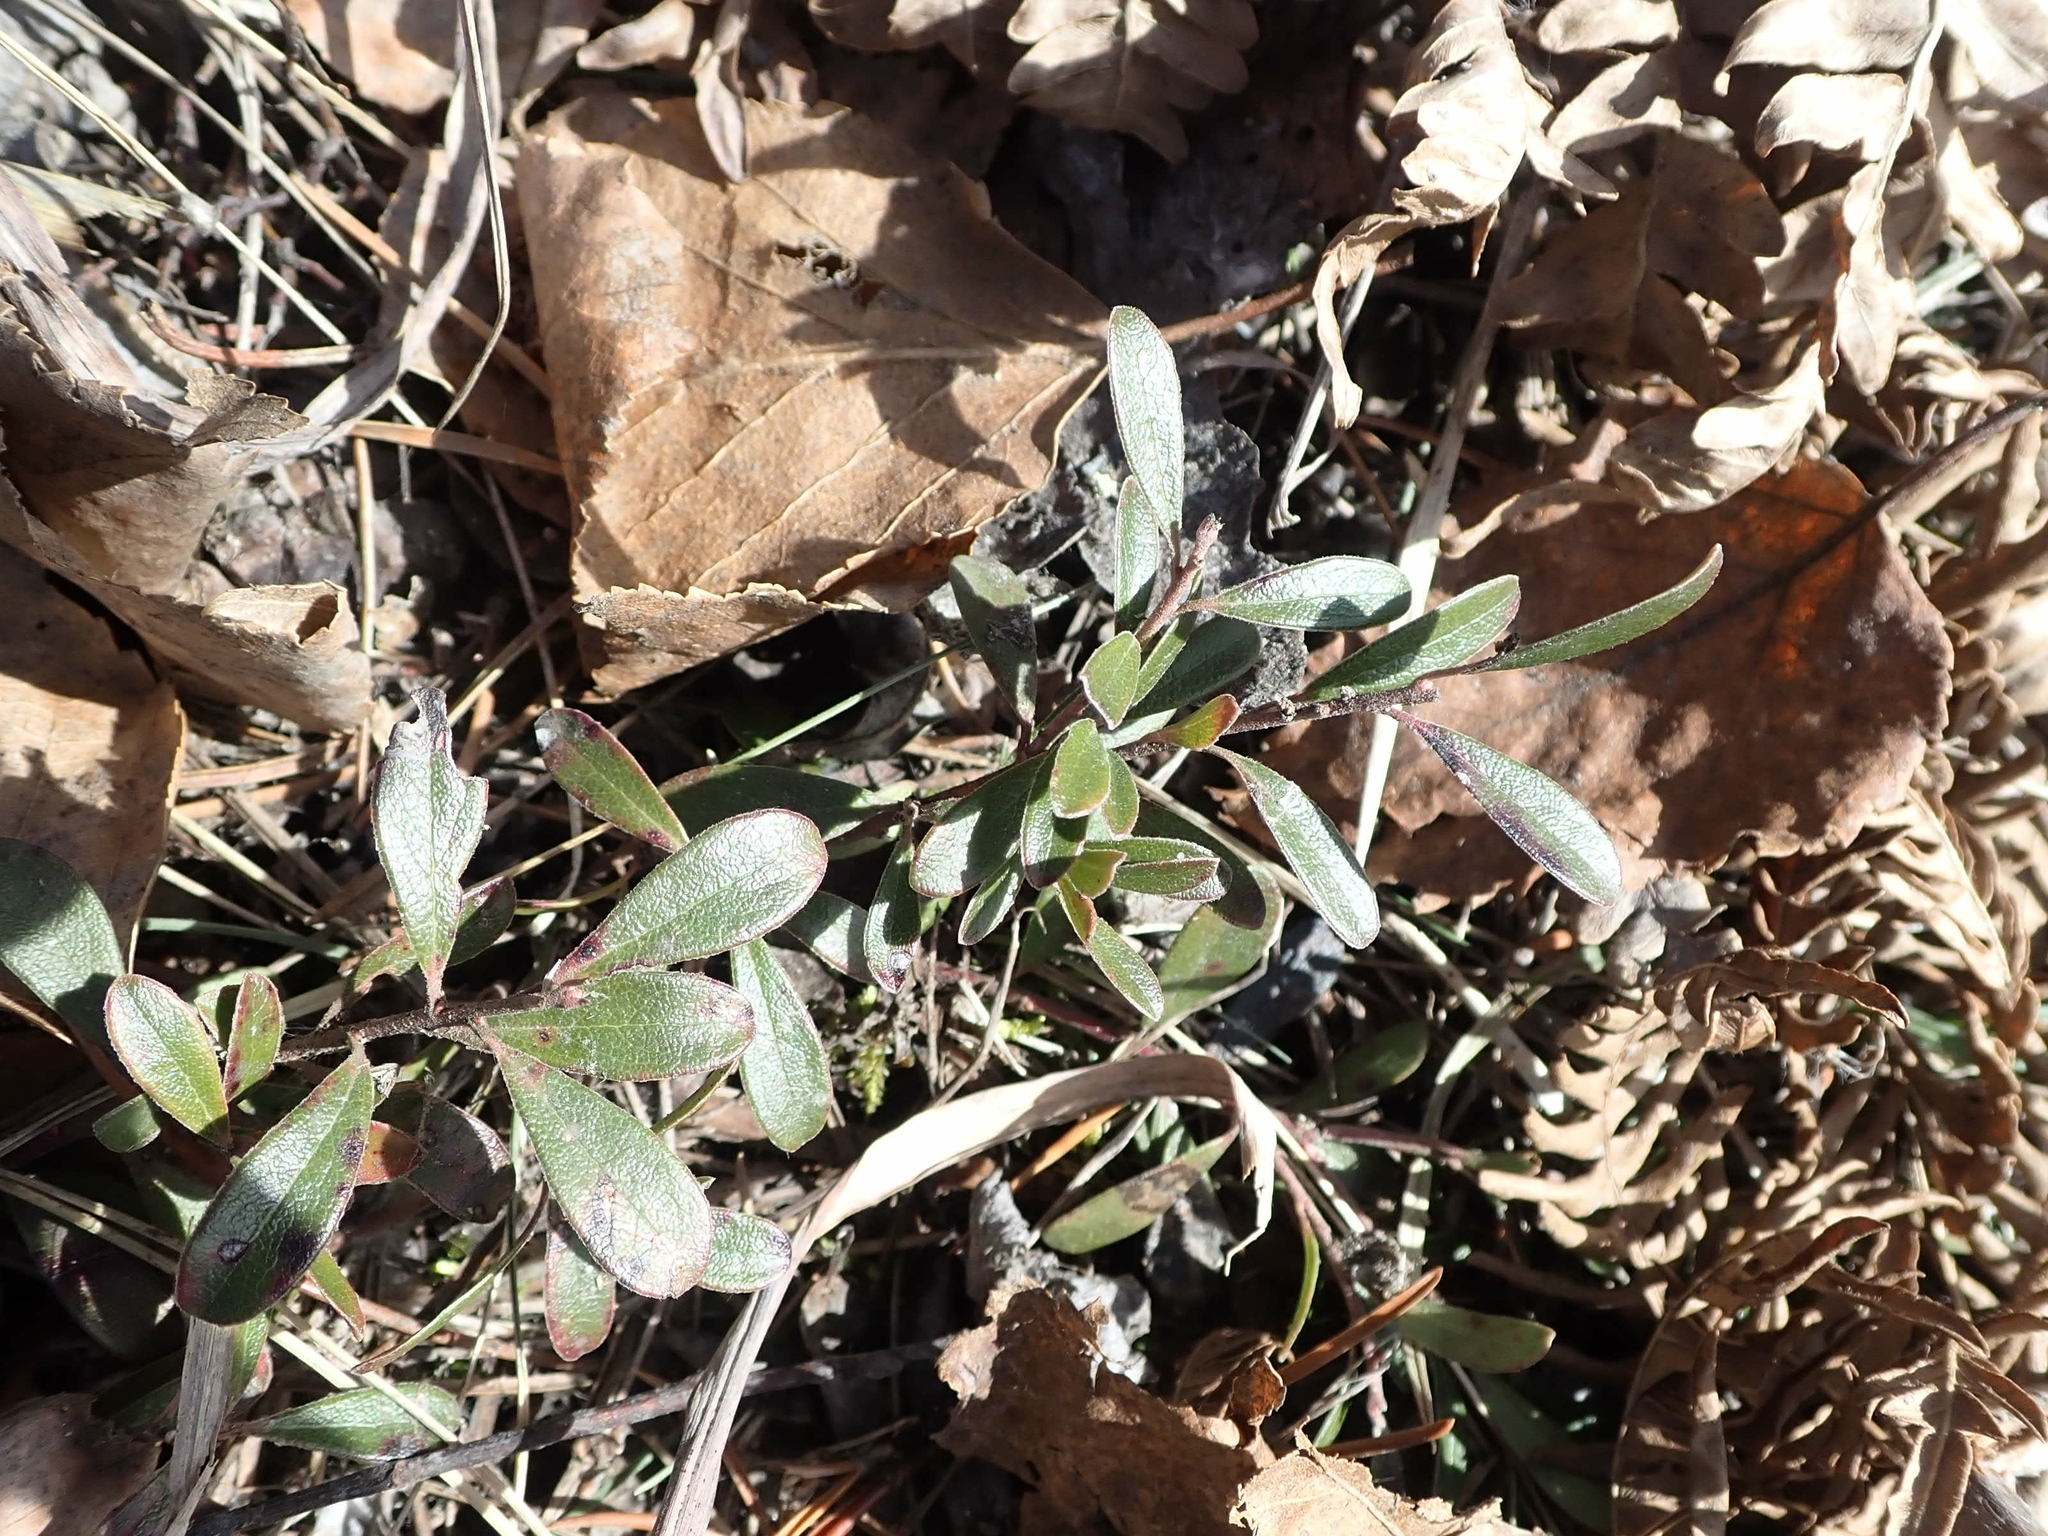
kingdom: Plantae
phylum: Tracheophyta
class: Magnoliopsida
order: Ericales
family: Ericaceae
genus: Arctostaphylos
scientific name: Arctostaphylos uva-ursi
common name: Bearberry
